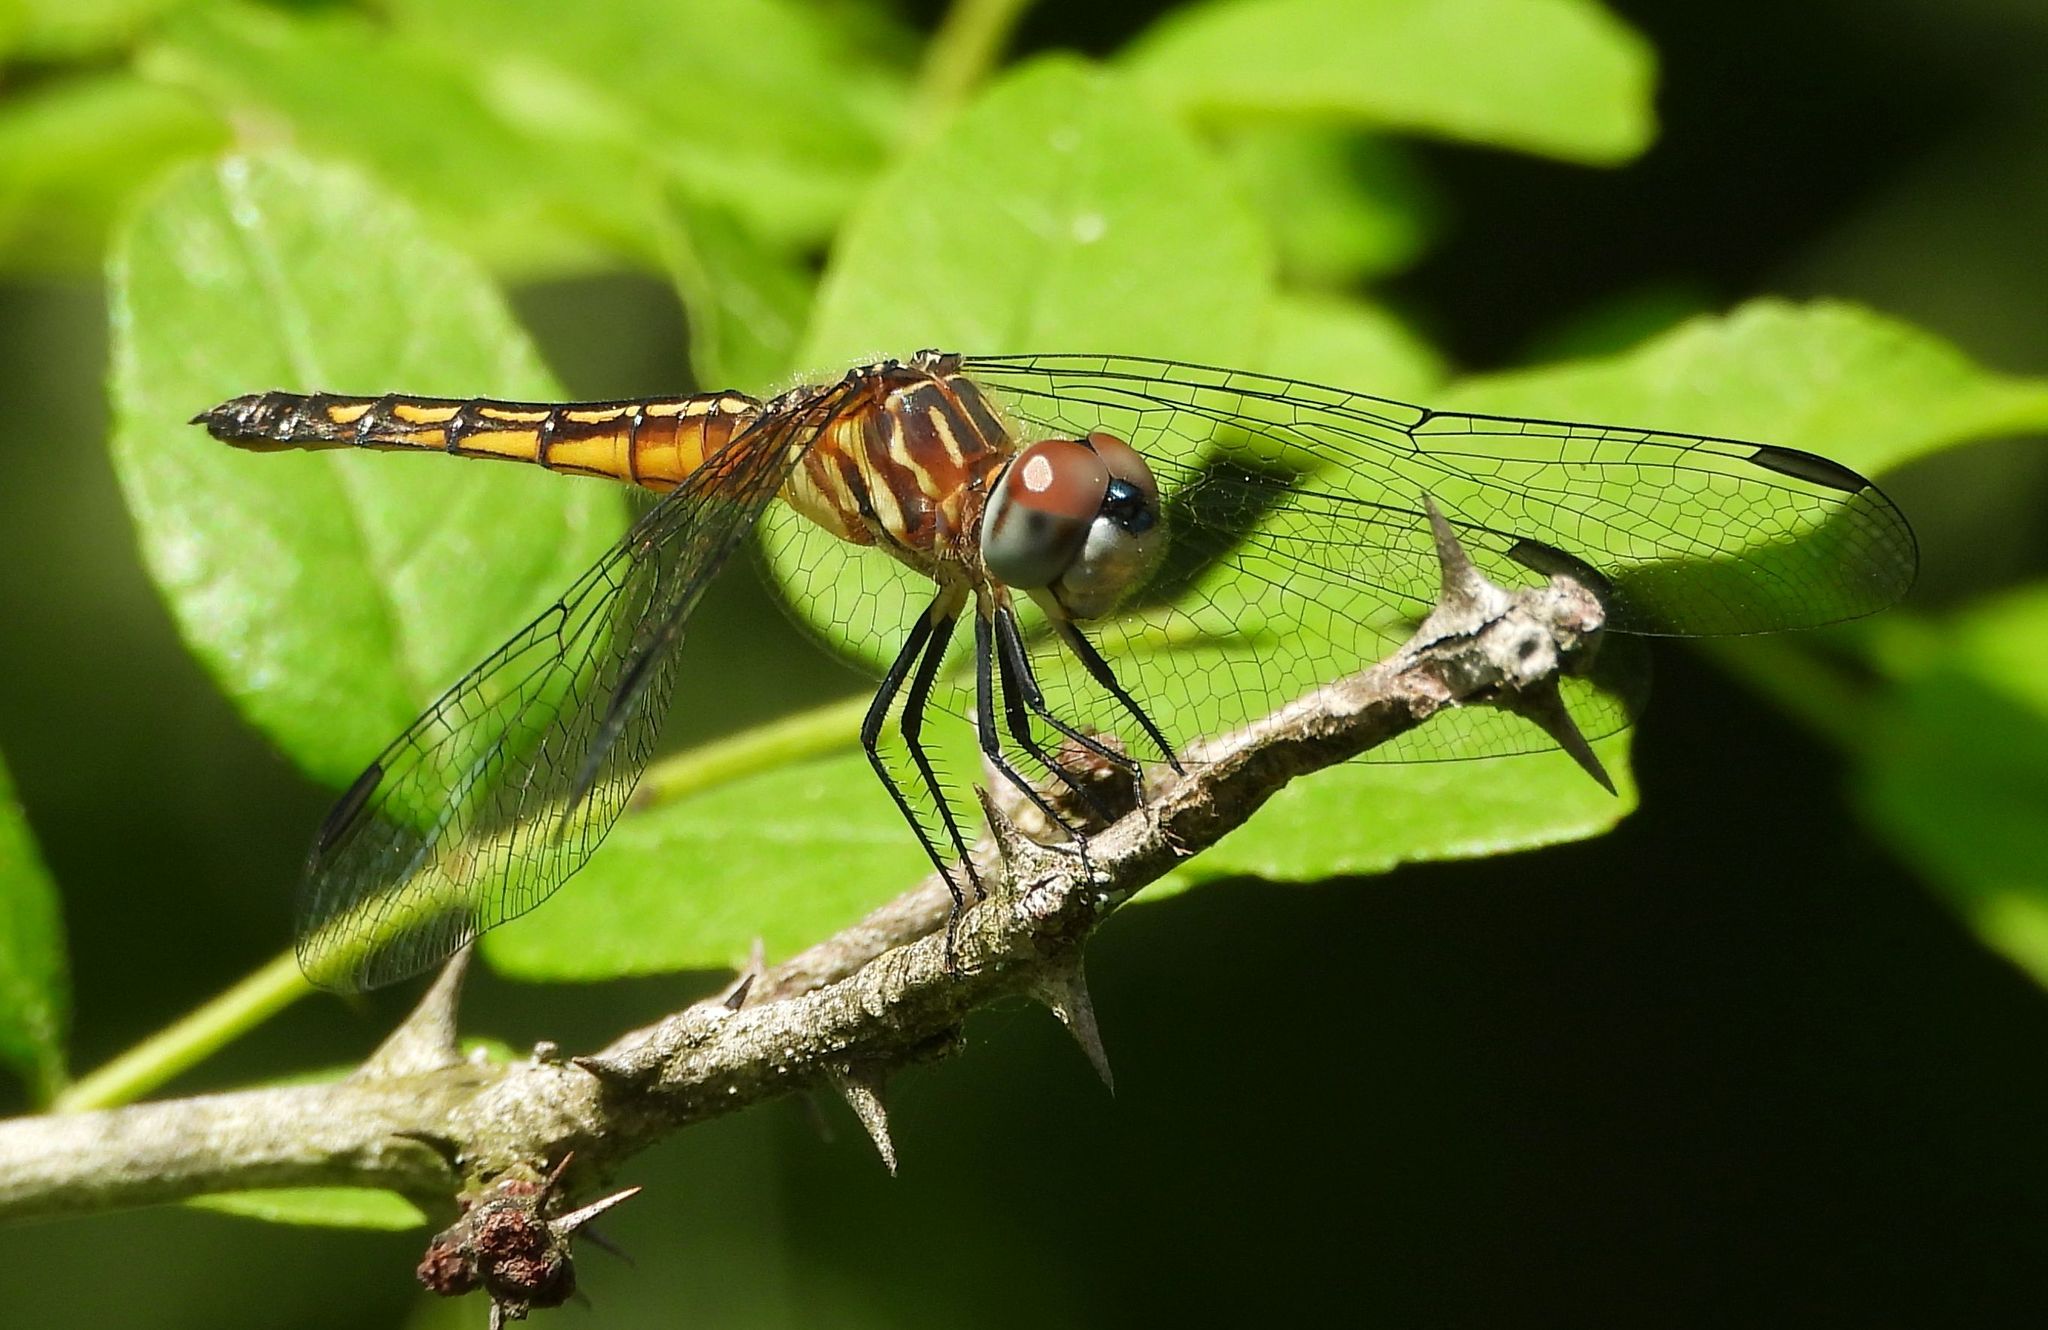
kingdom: Animalia
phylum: Arthropoda
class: Insecta
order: Odonata
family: Libellulidae
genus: Pachydiplax
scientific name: Pachydiplax longipennis
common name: Blue dasher
